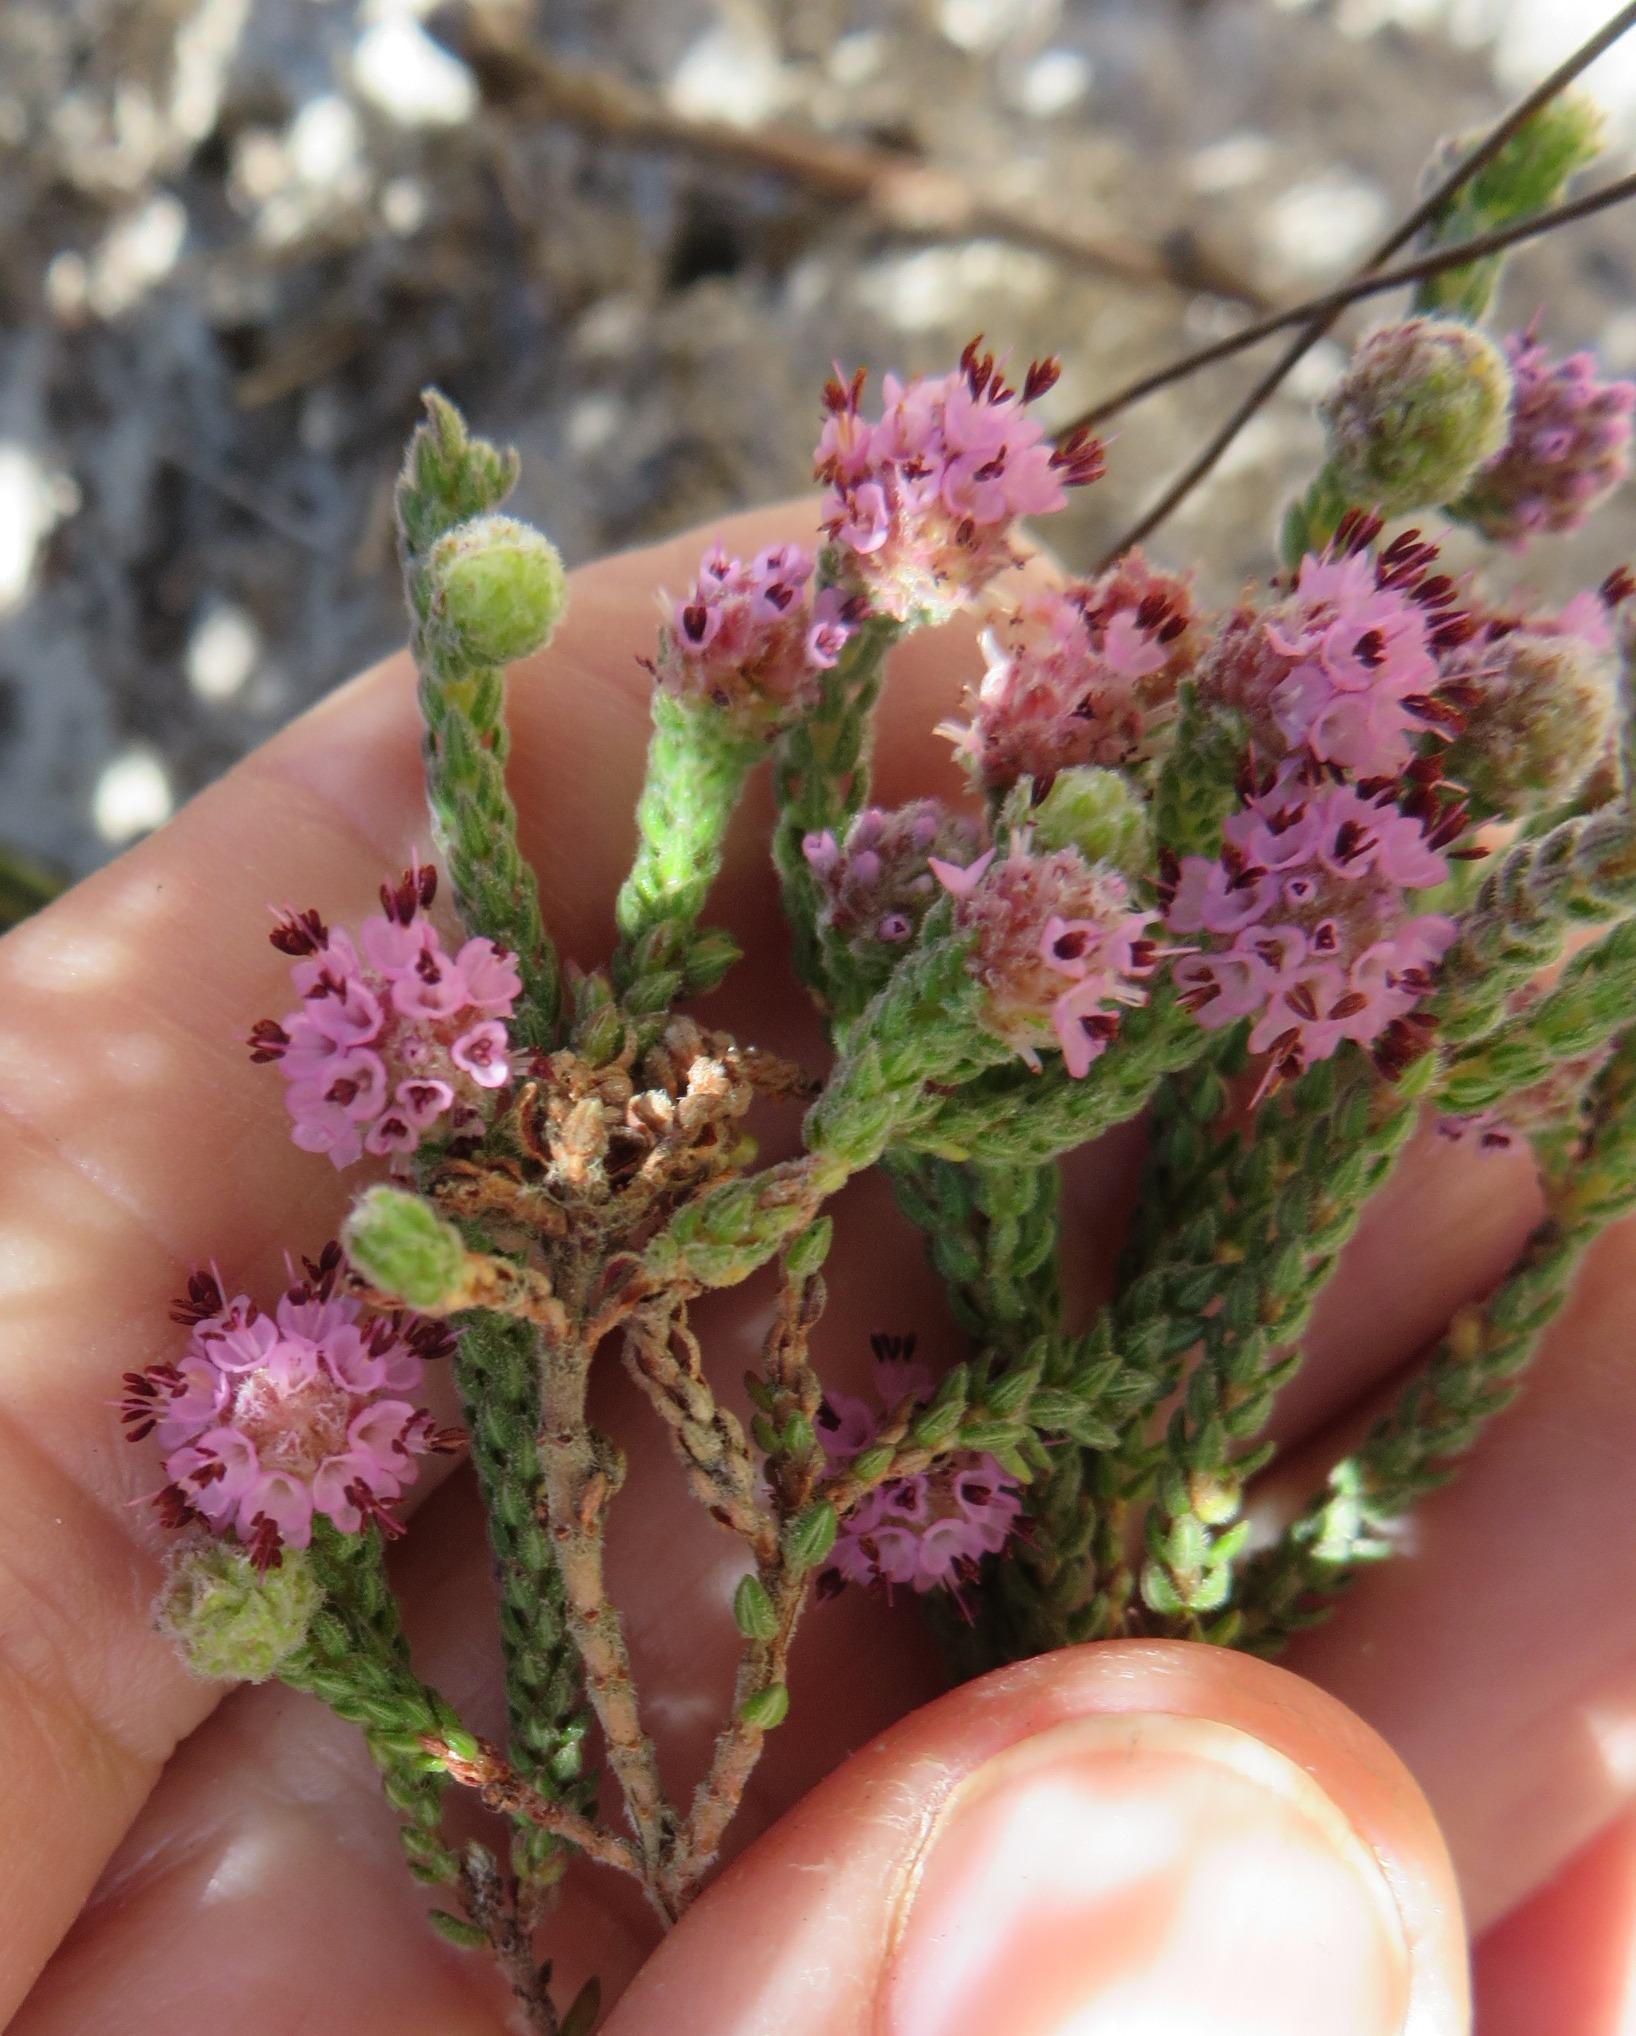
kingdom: Plantae
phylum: Tracheophyta
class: Magnoliopsida
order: Ericales
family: Ericaceae
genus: Erica
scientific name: Erica globiceps
